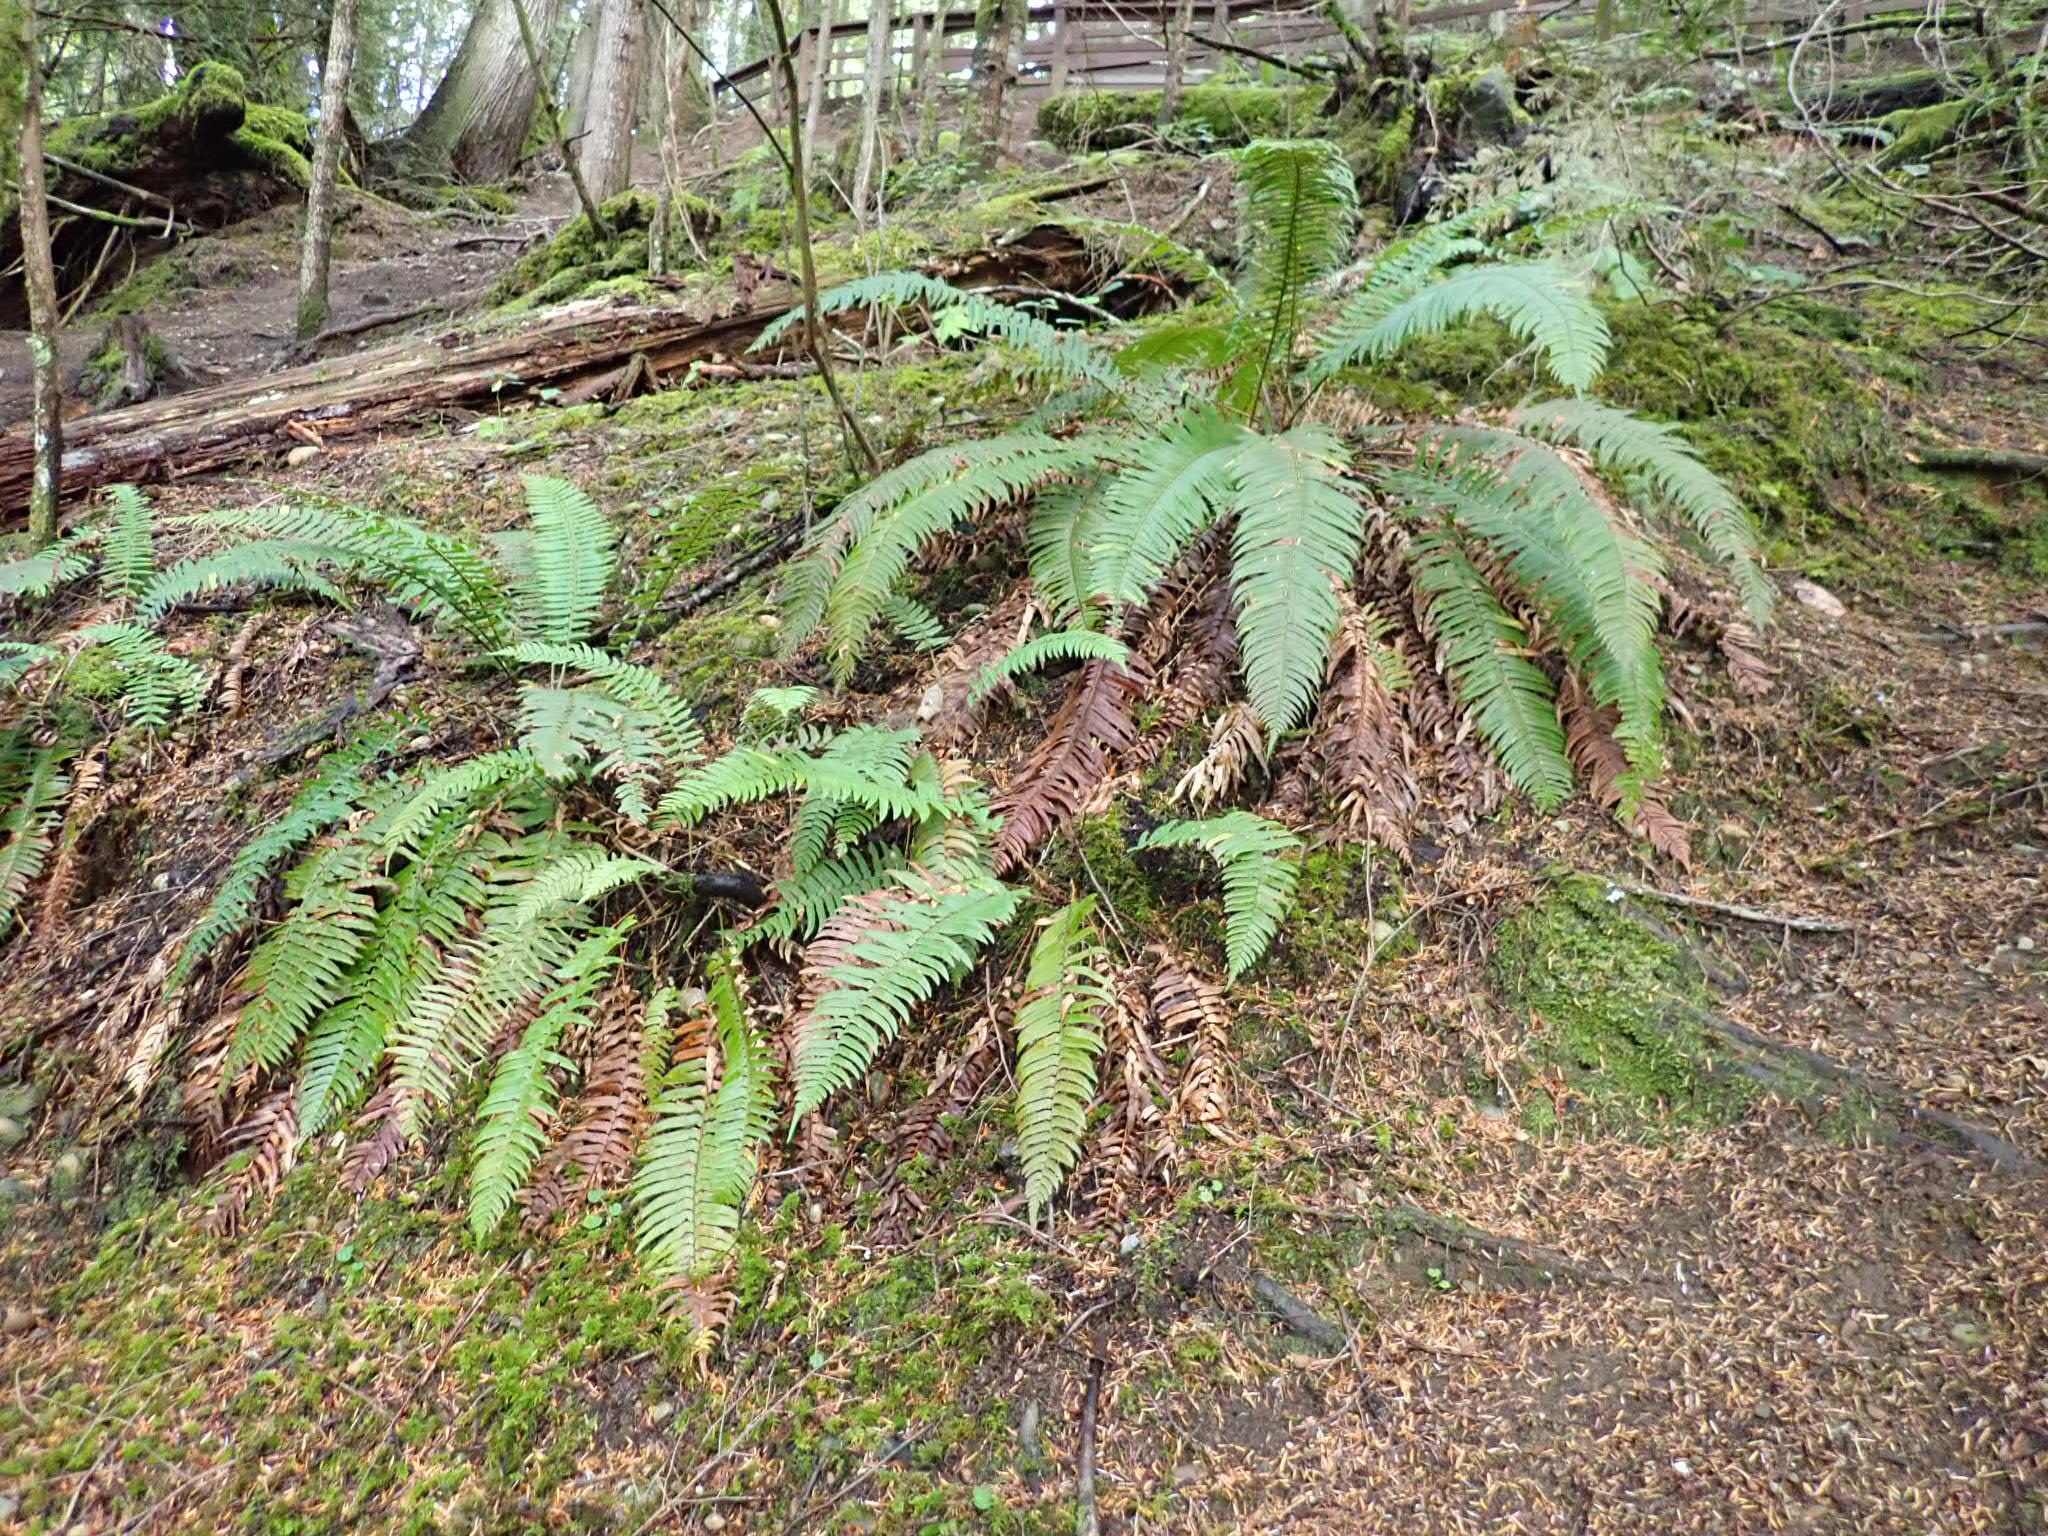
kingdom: Plantae
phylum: Tracheophyta
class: Polypodiopsida
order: Polypodiales
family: Dryopteridaceae
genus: Polystichum
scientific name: Polystichum munitum
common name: Western sword-fern
